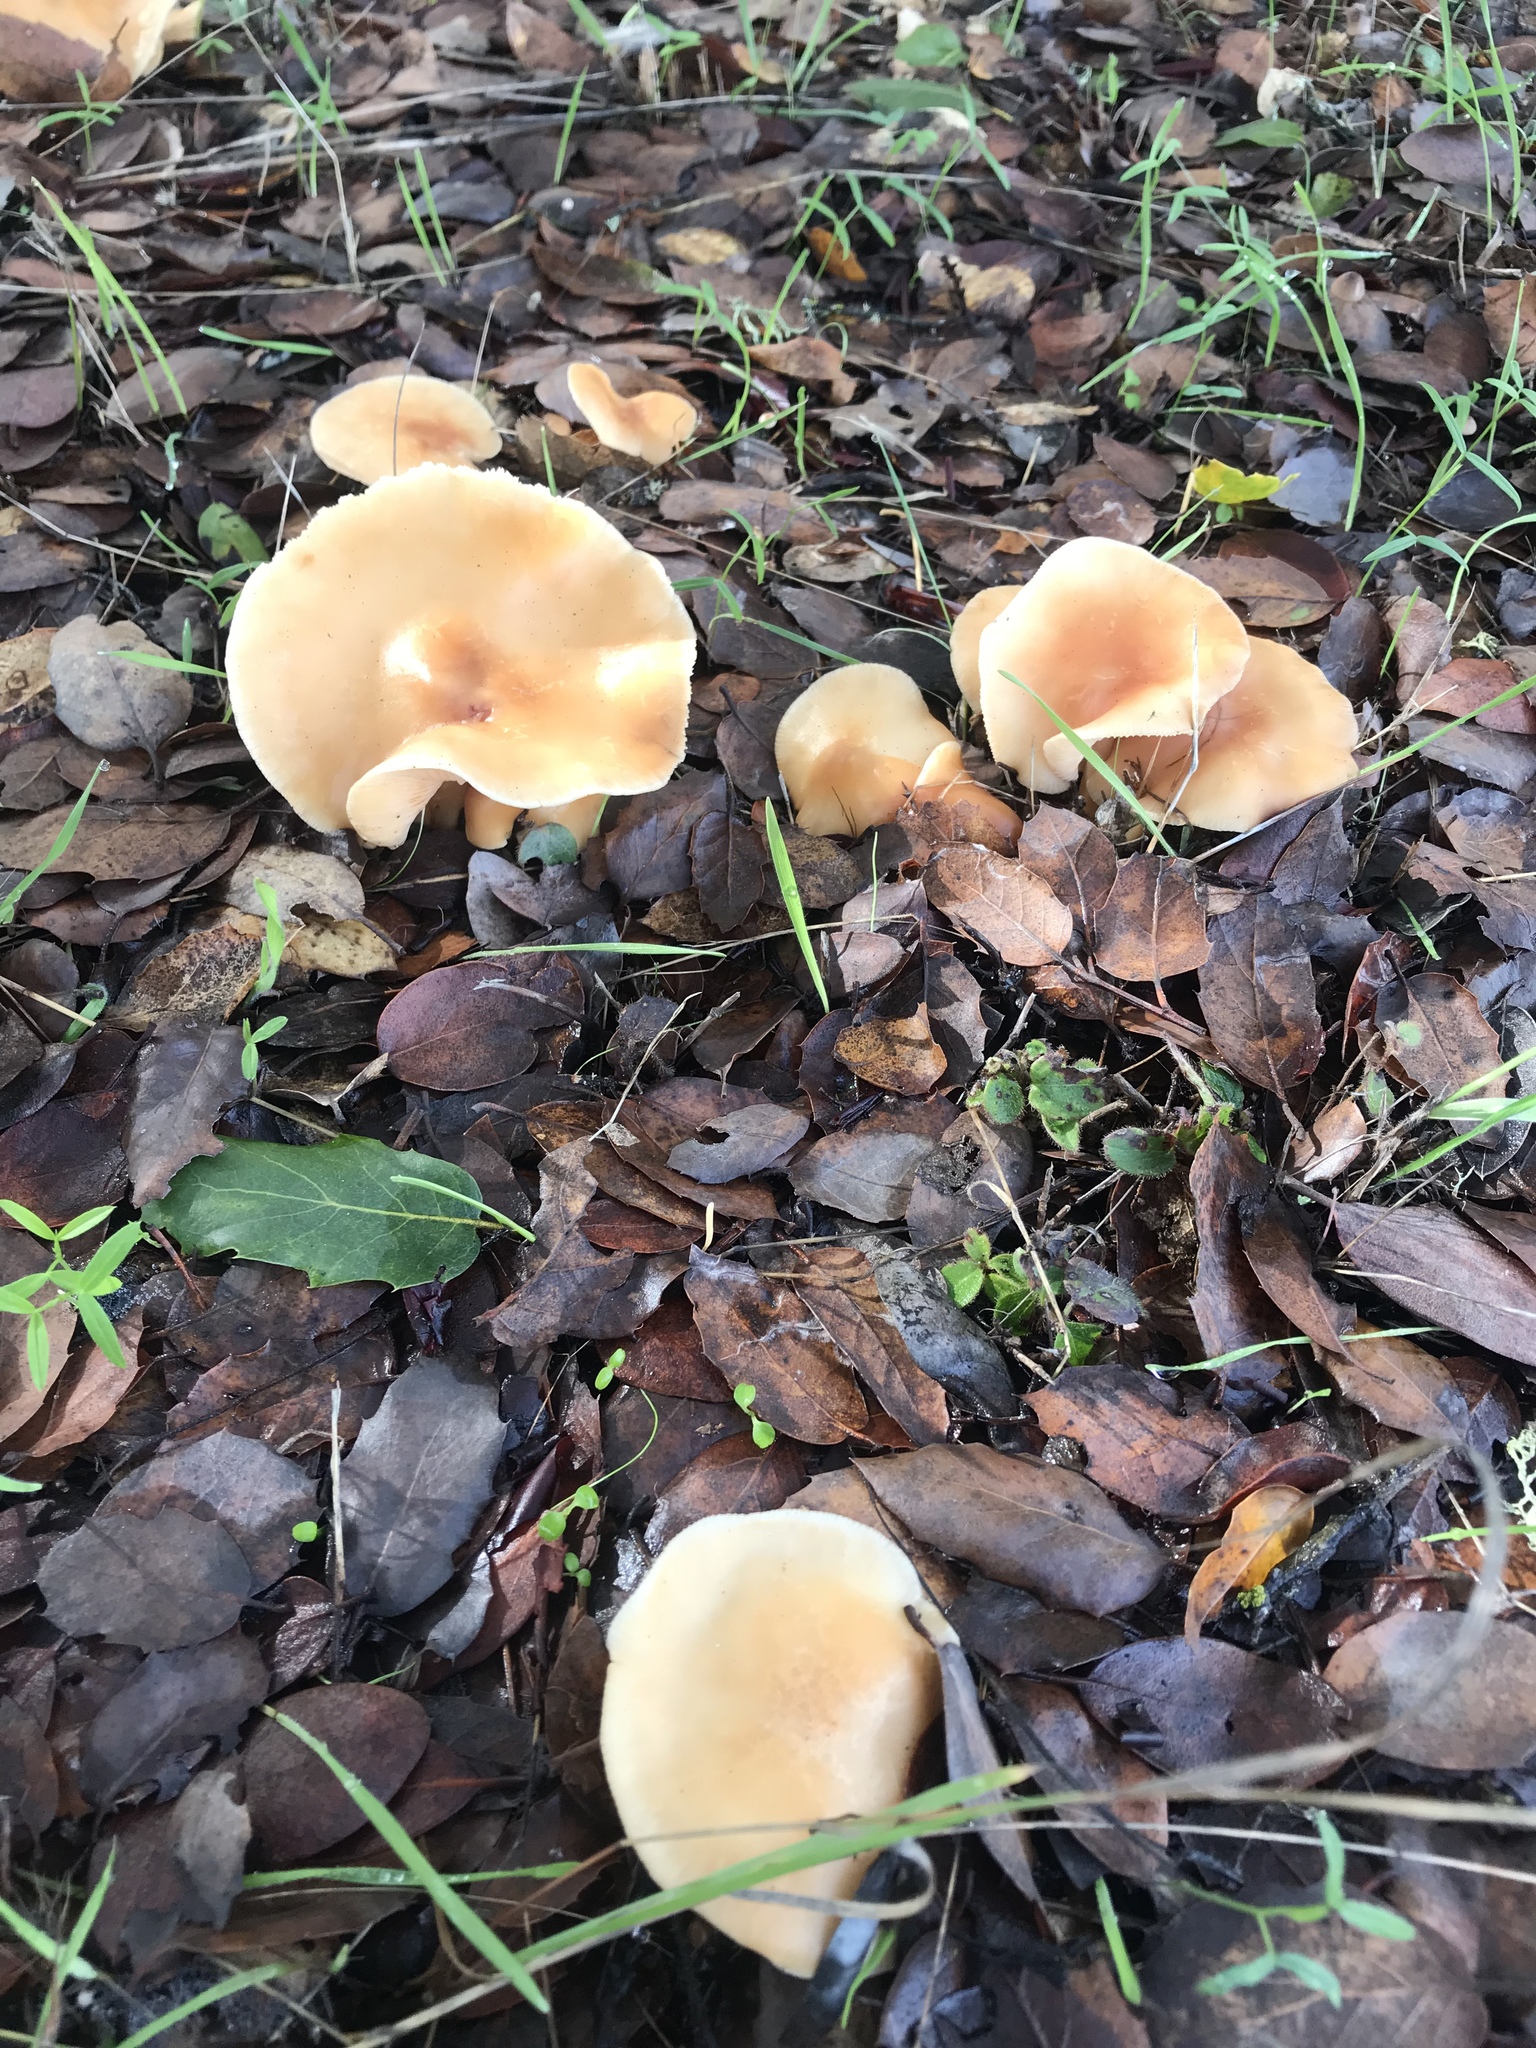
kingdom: Fungi
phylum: Basidiomycota
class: Agaricomycetes
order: Agaricales
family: Omphalotaceae
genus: Gymnopus
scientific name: Gymnopus dryophilus
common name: Penny top
